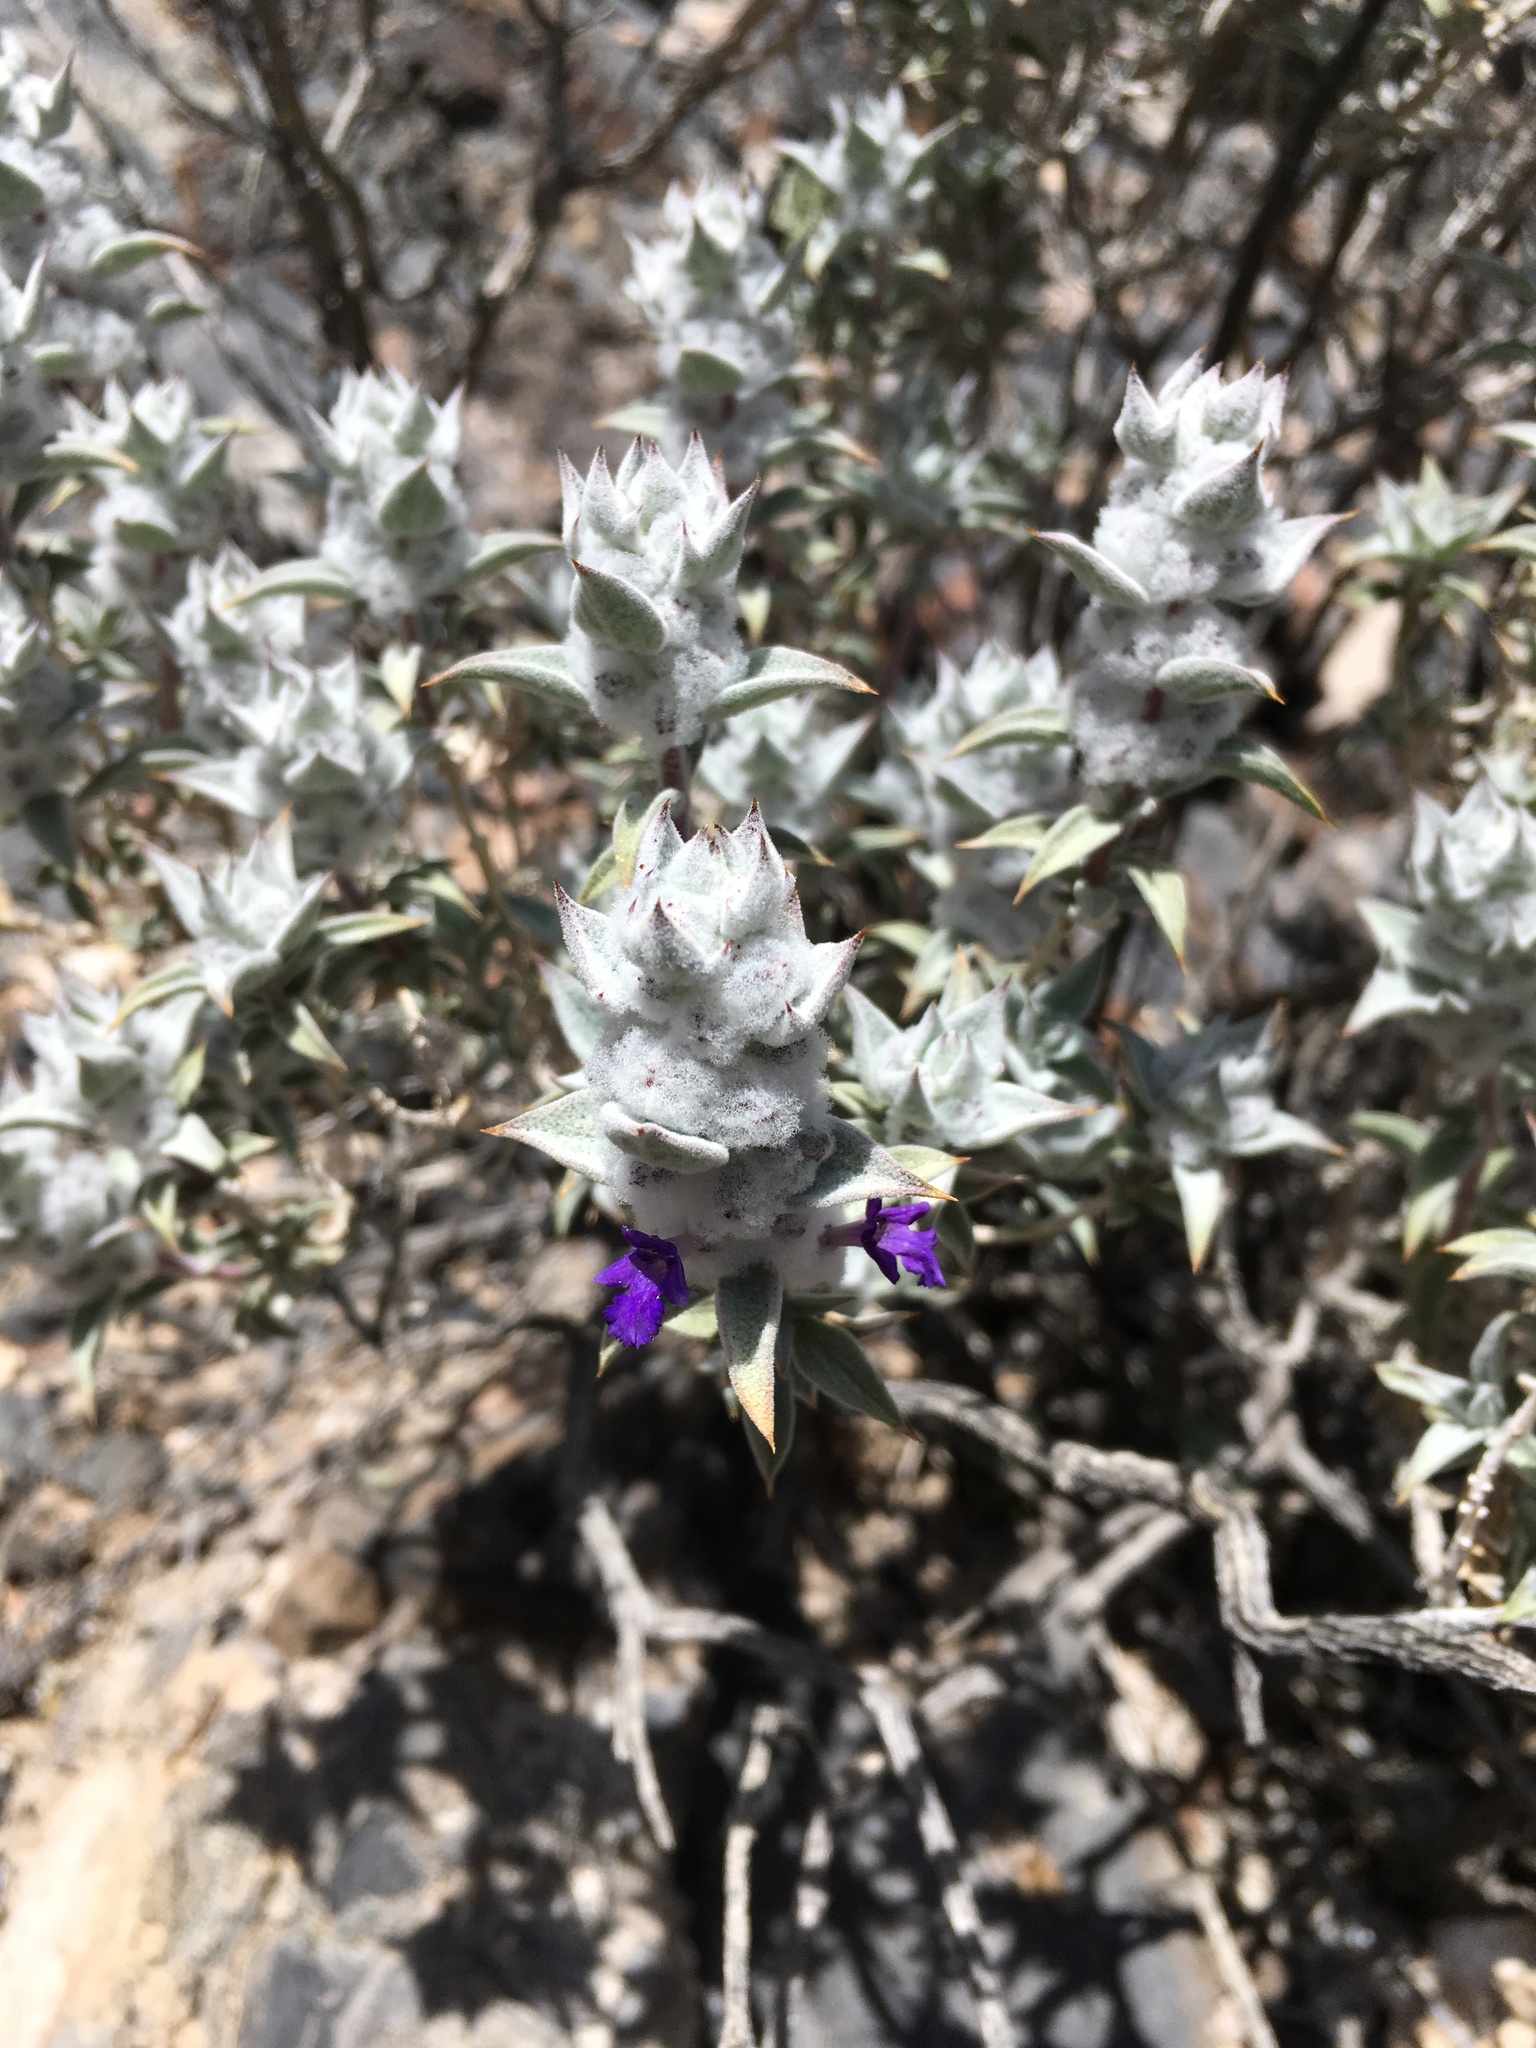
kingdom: Plantae
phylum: Tracheophyta
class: Magnoliopsida
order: Lamiales
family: Lamiaceae
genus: Salvia
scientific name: Salvia funerea
